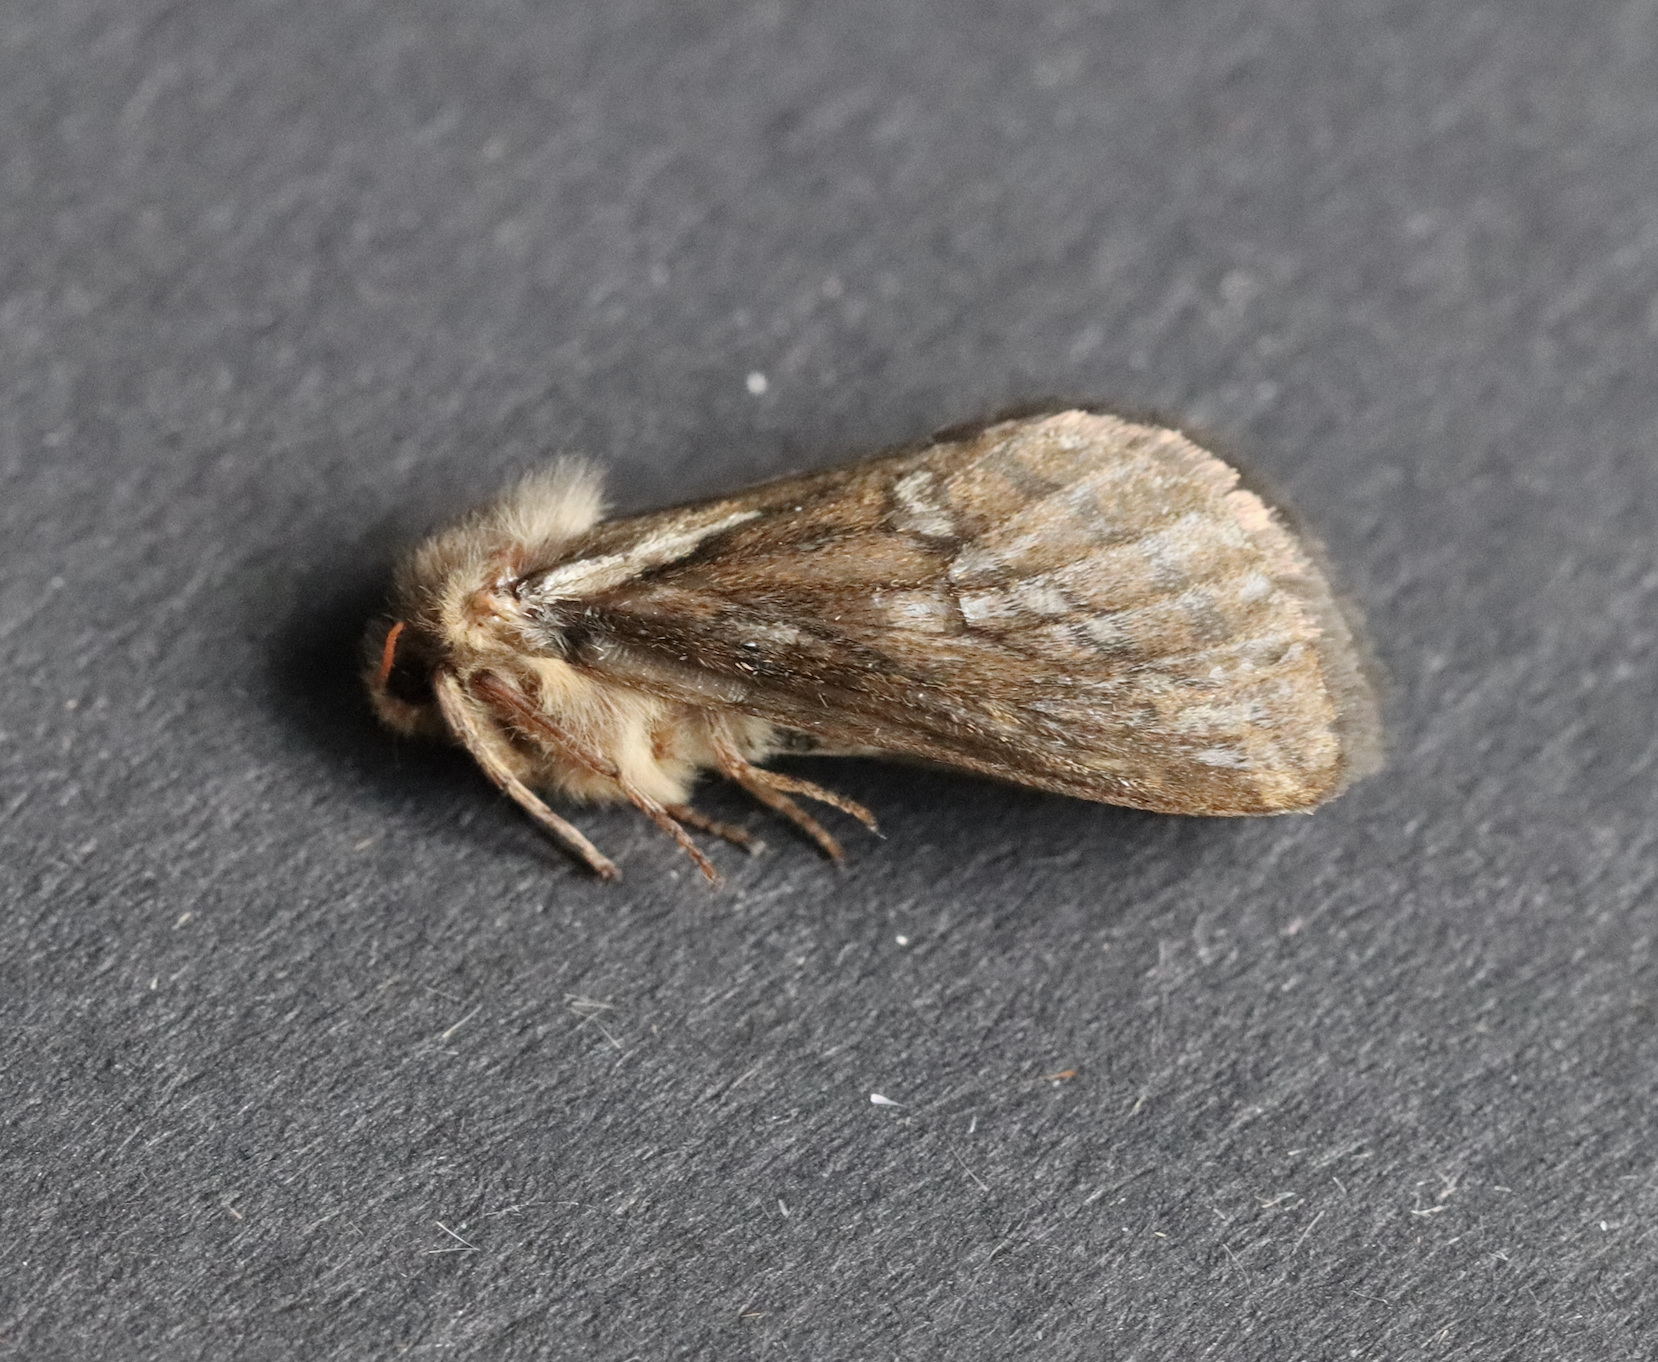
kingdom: Animalia
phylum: Arthropoda
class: Insecta
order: Lepidoptera
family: Hepialidae
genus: Korscheltellus
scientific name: Korscheltellus lupulina
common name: Common swift
